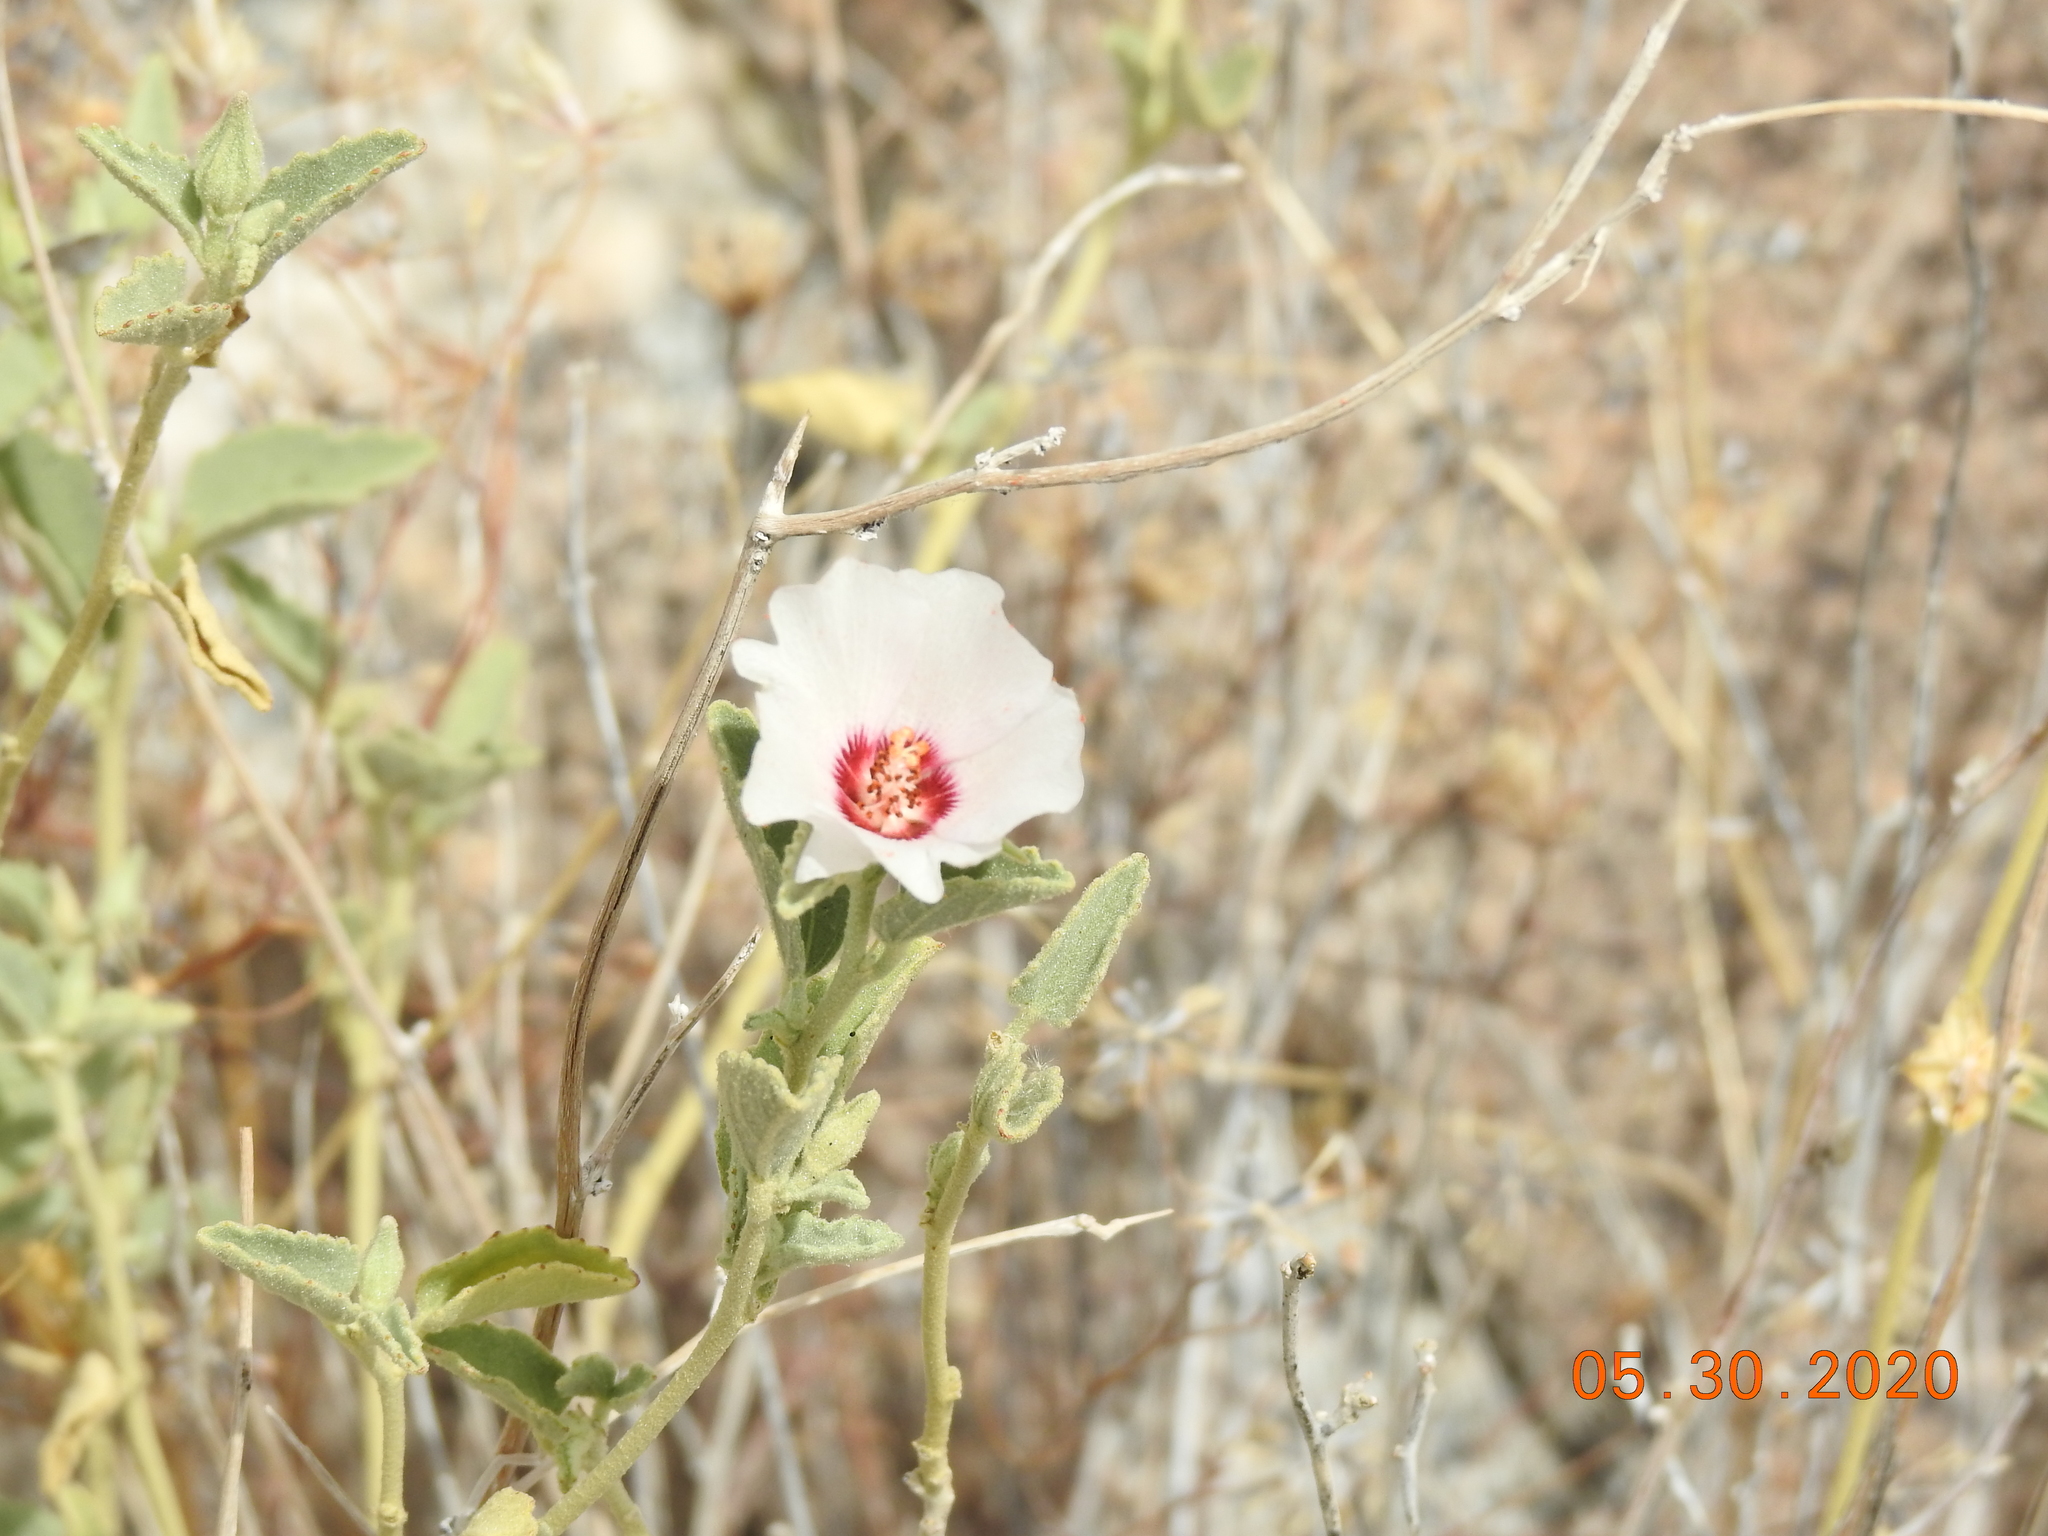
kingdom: Plantae
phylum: Tracheophyta
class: Magnoliopsida
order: Malvales
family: Malvaceae
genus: Hibiscus
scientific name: Hibiscus denudatus
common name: Paleface
